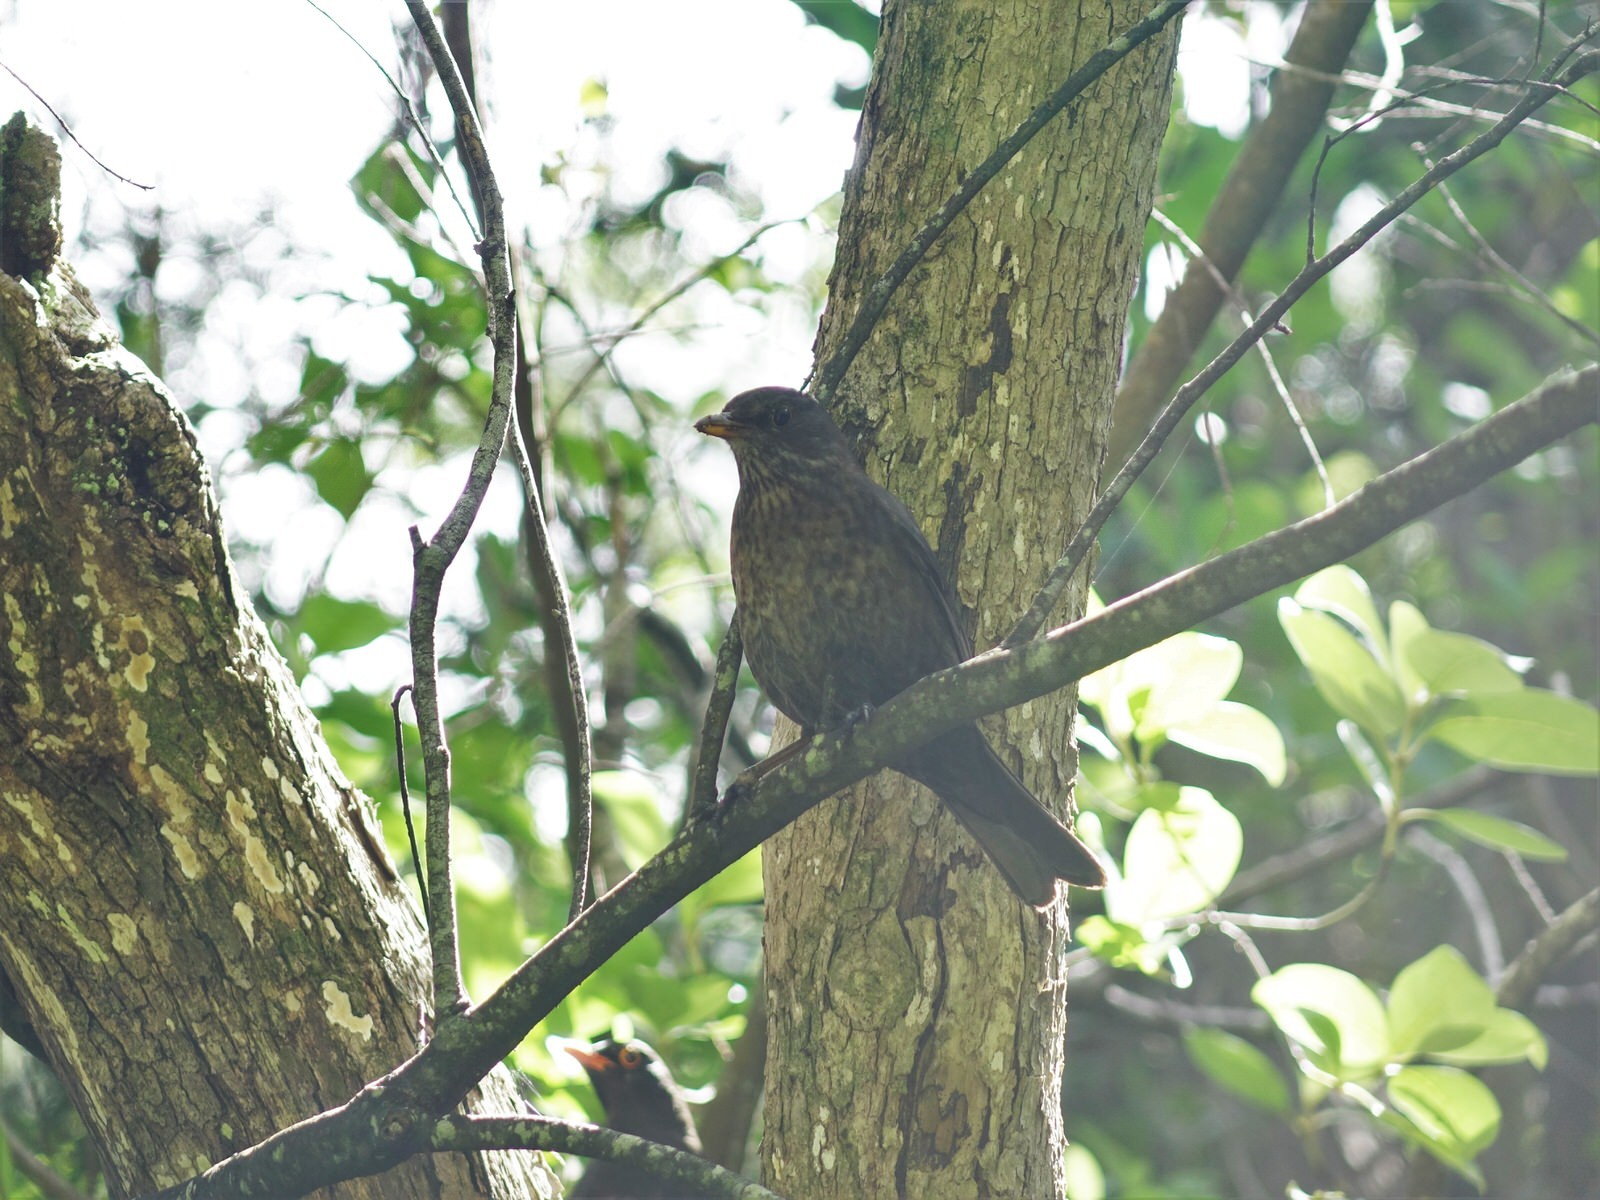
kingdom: Animalia
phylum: Chordata
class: Aves
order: Passeriformes
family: Turdidae
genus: Turdus
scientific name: Turdus merula
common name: Common blackbird
